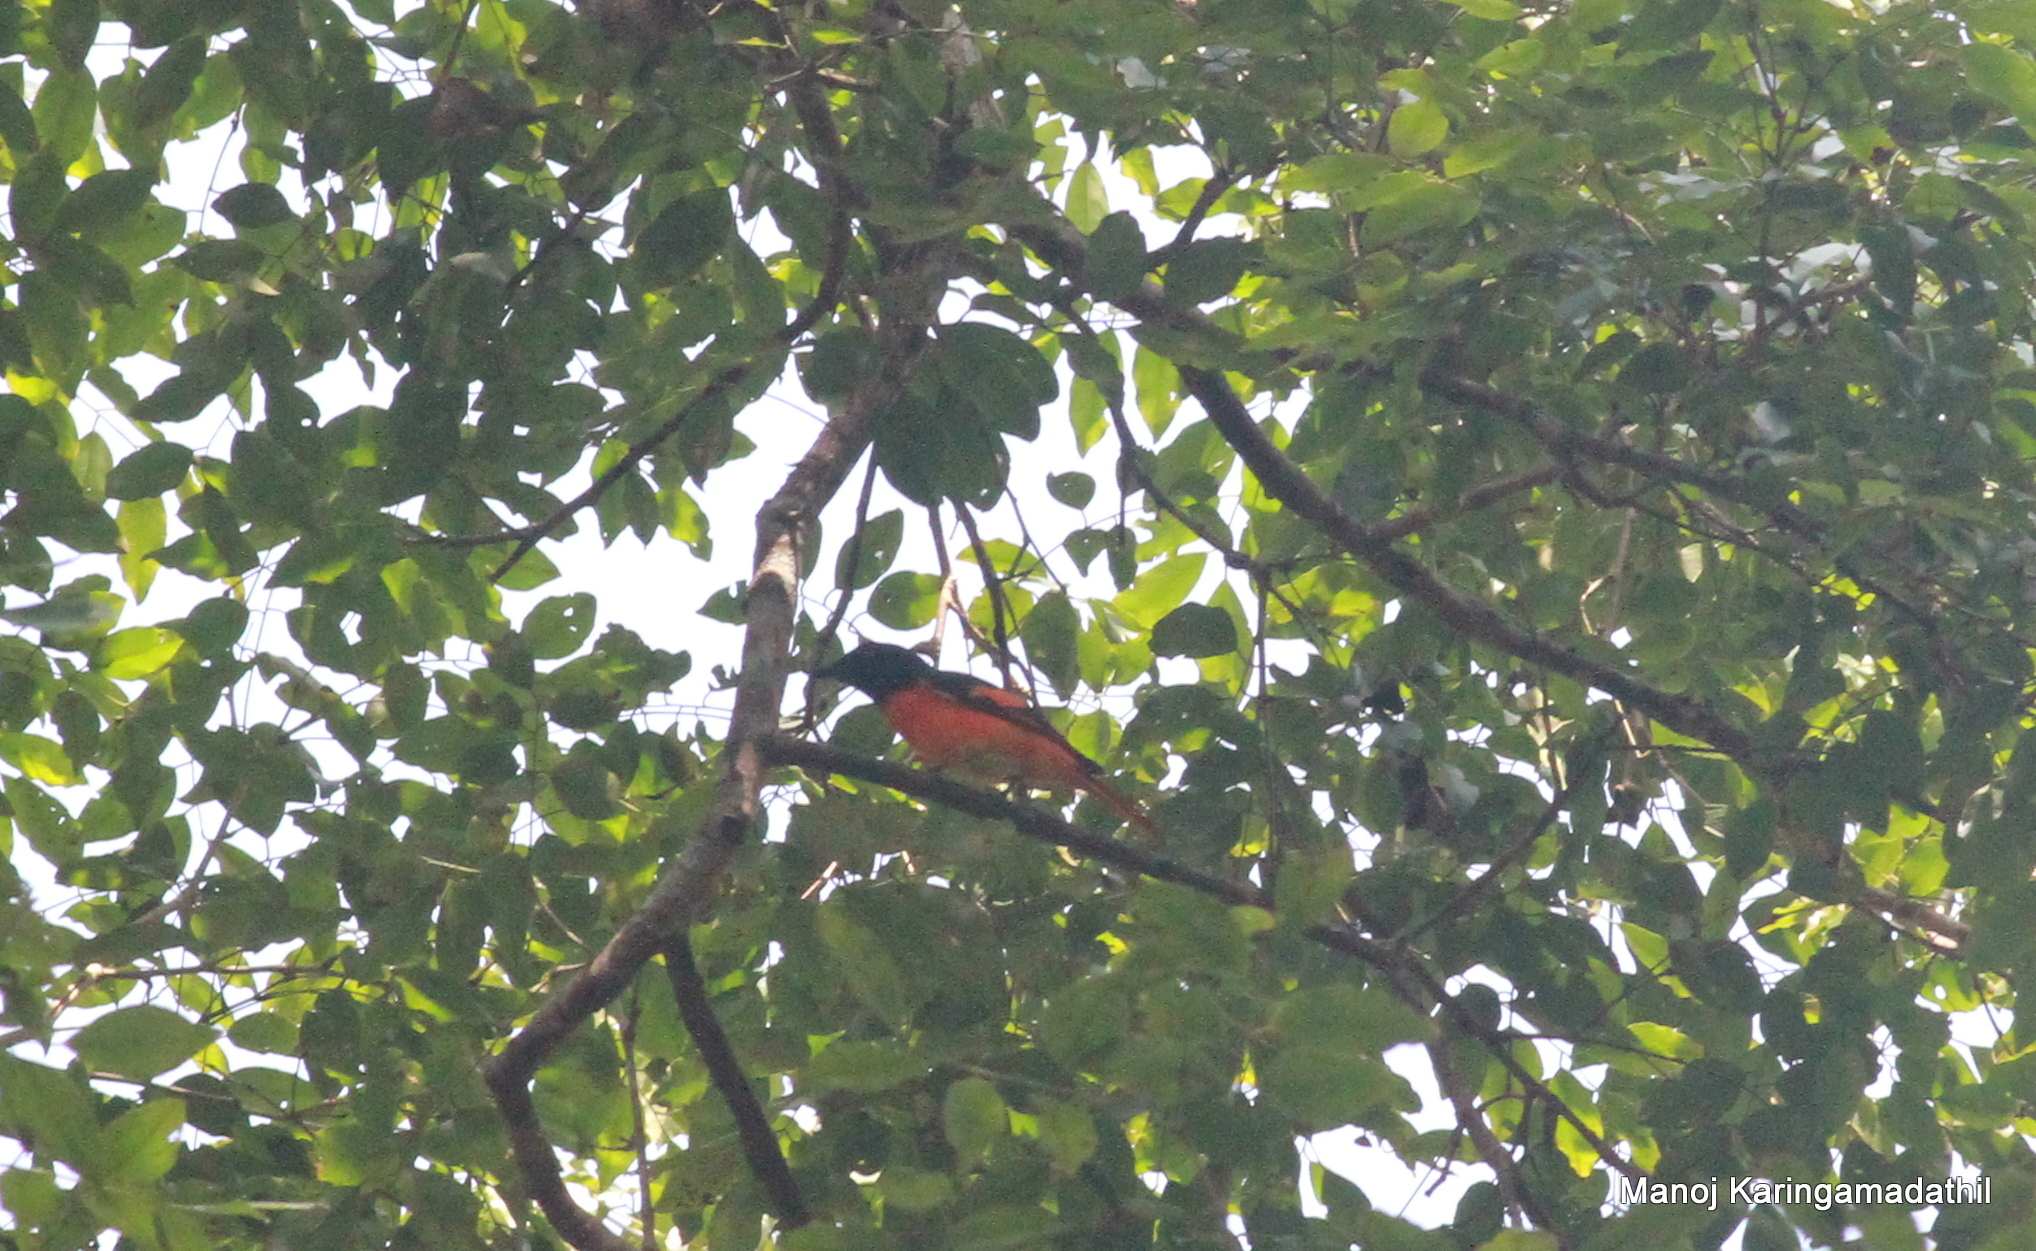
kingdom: Animalia
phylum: Chordata
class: Aves
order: Passeriformes
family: Campephagidae
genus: Pericrocotus
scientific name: Pericrocotus flammeus
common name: Orange minivet
